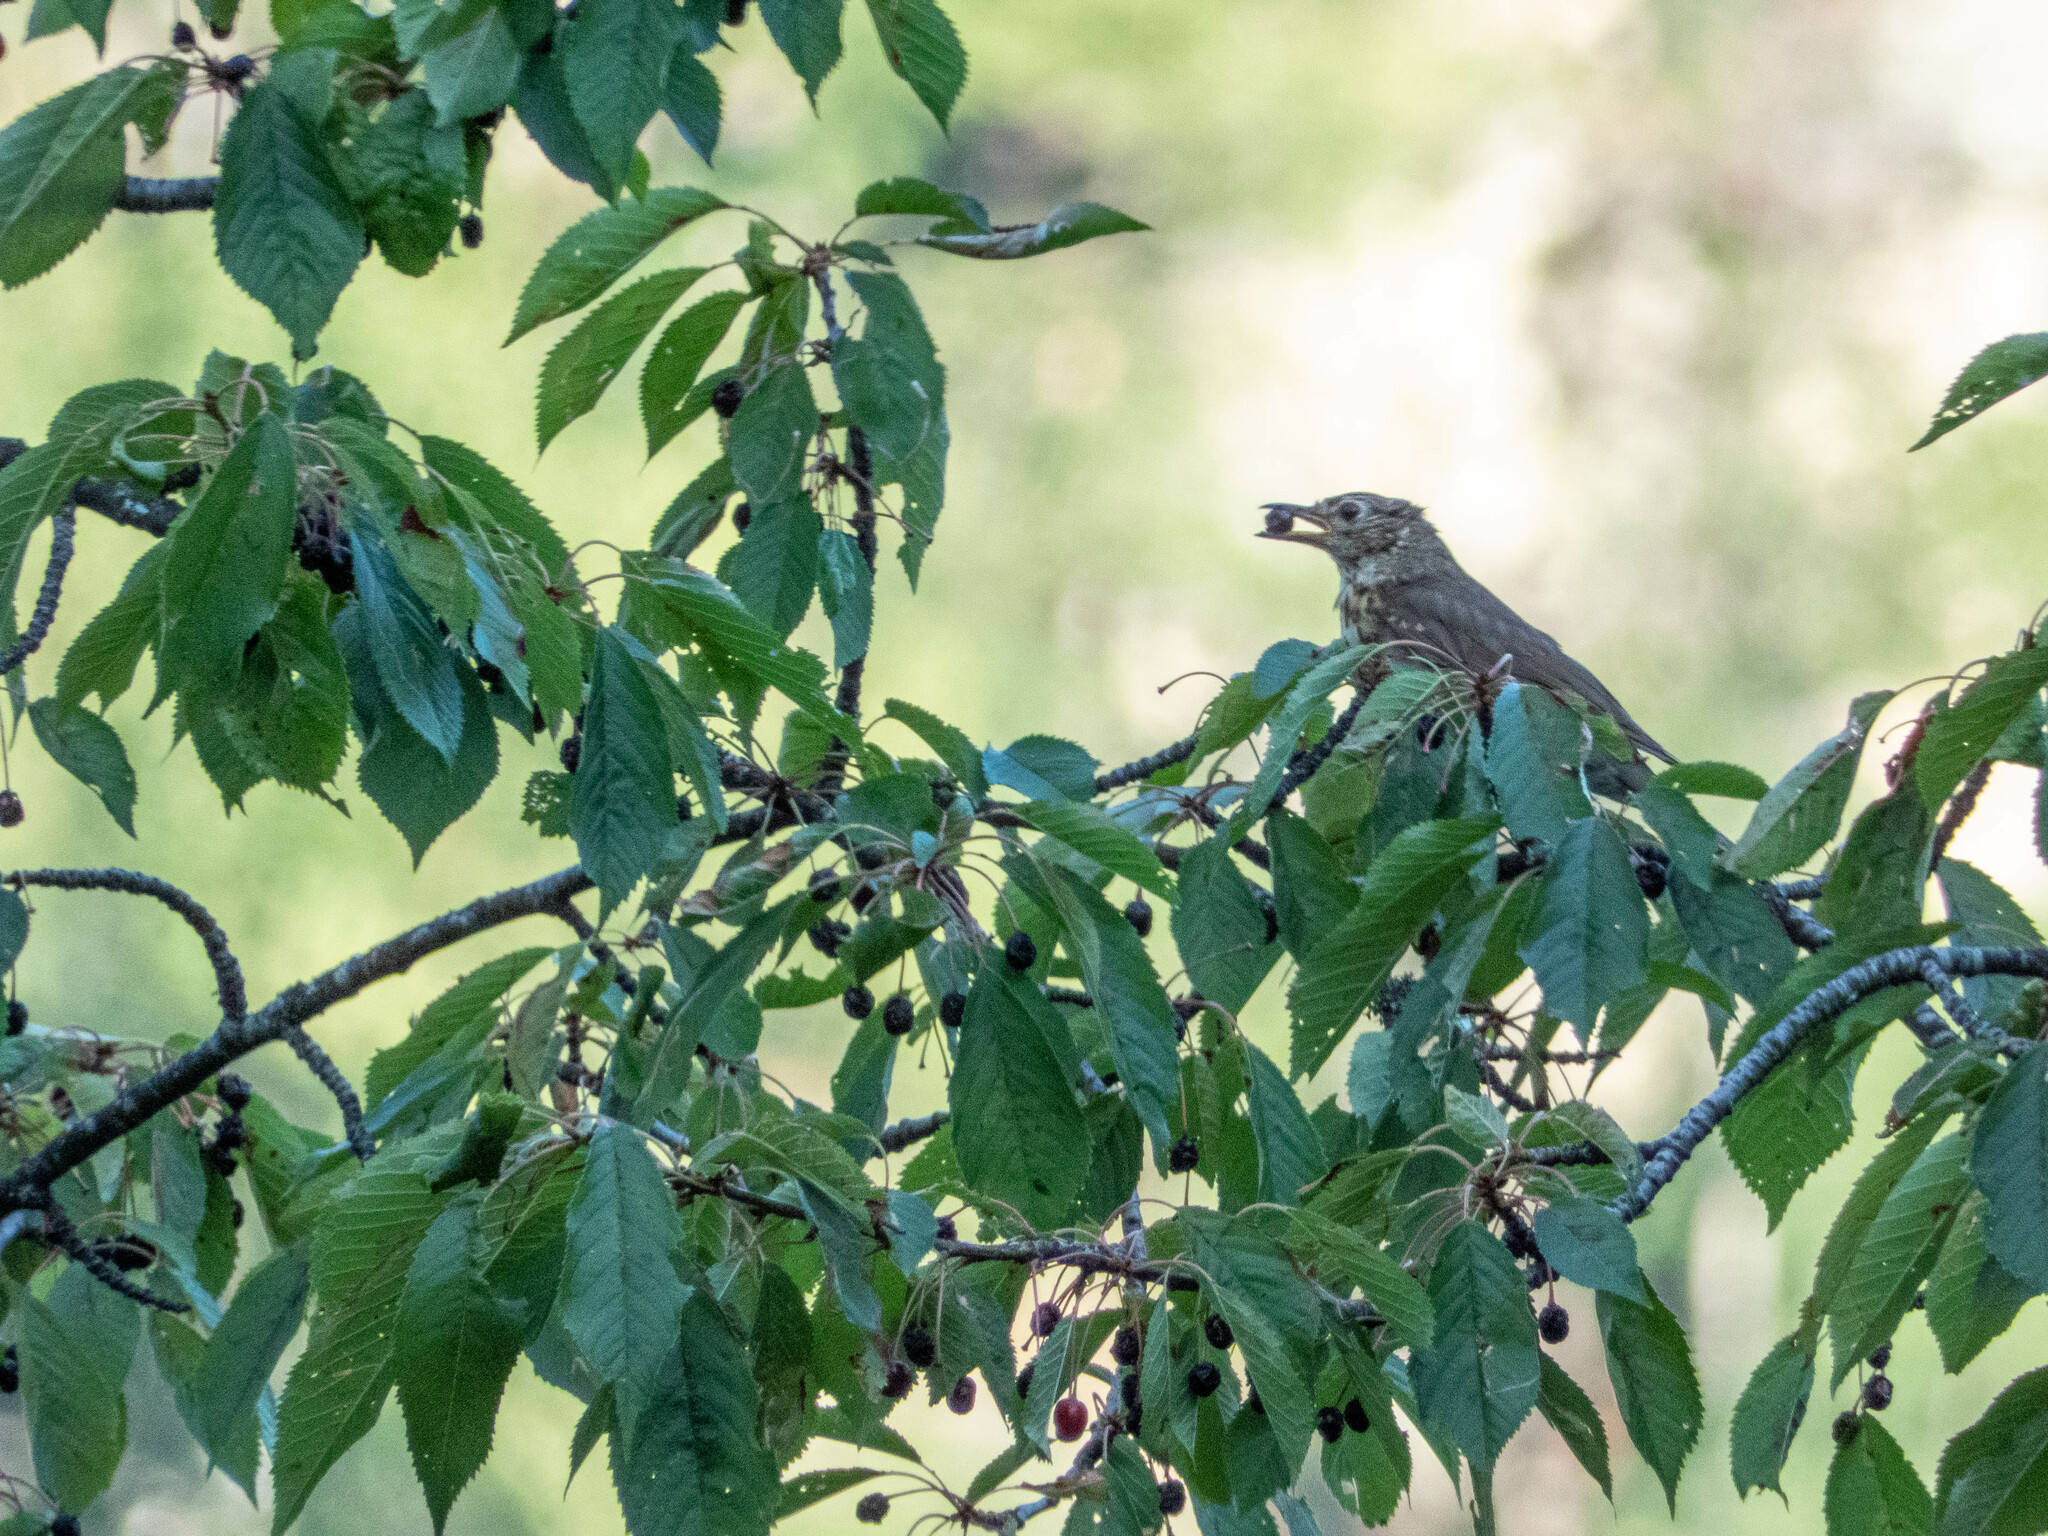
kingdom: Animalia
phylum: Chordata
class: Aves
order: Passeriformes
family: Turdidae
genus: Turdus
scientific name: Turdus philomelos
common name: Song thrush
